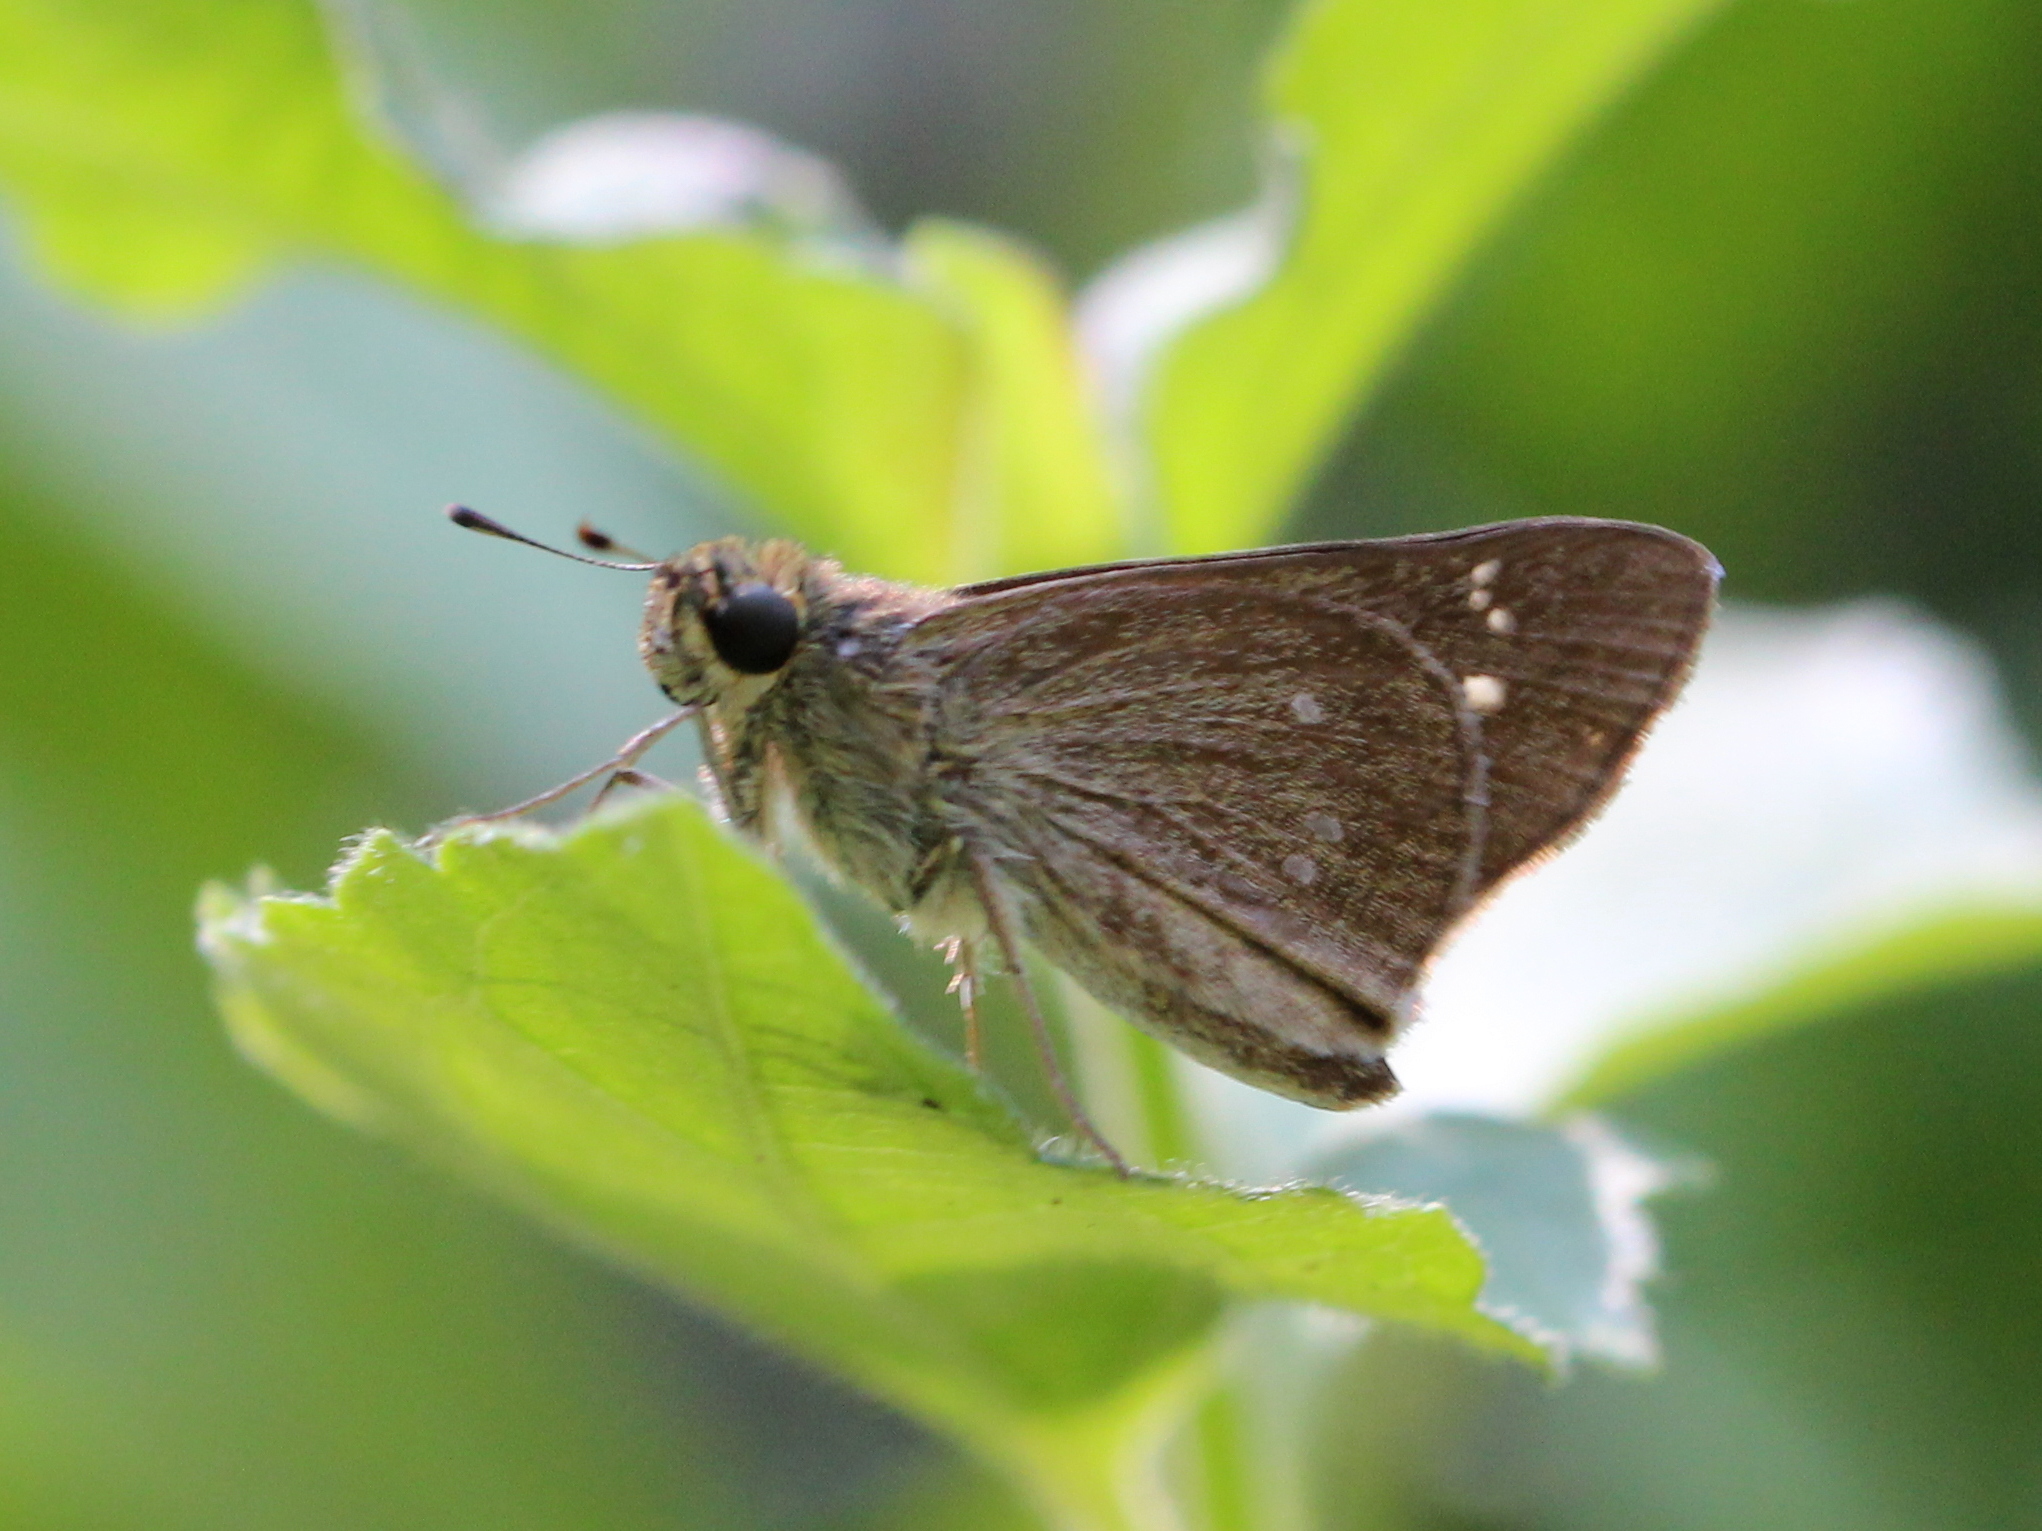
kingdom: Animalia
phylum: Arthropoda
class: Insecta
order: Lepidoptera
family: Hesperiidae
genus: Borbo
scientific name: Borbo cinnara
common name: Formosan swift
